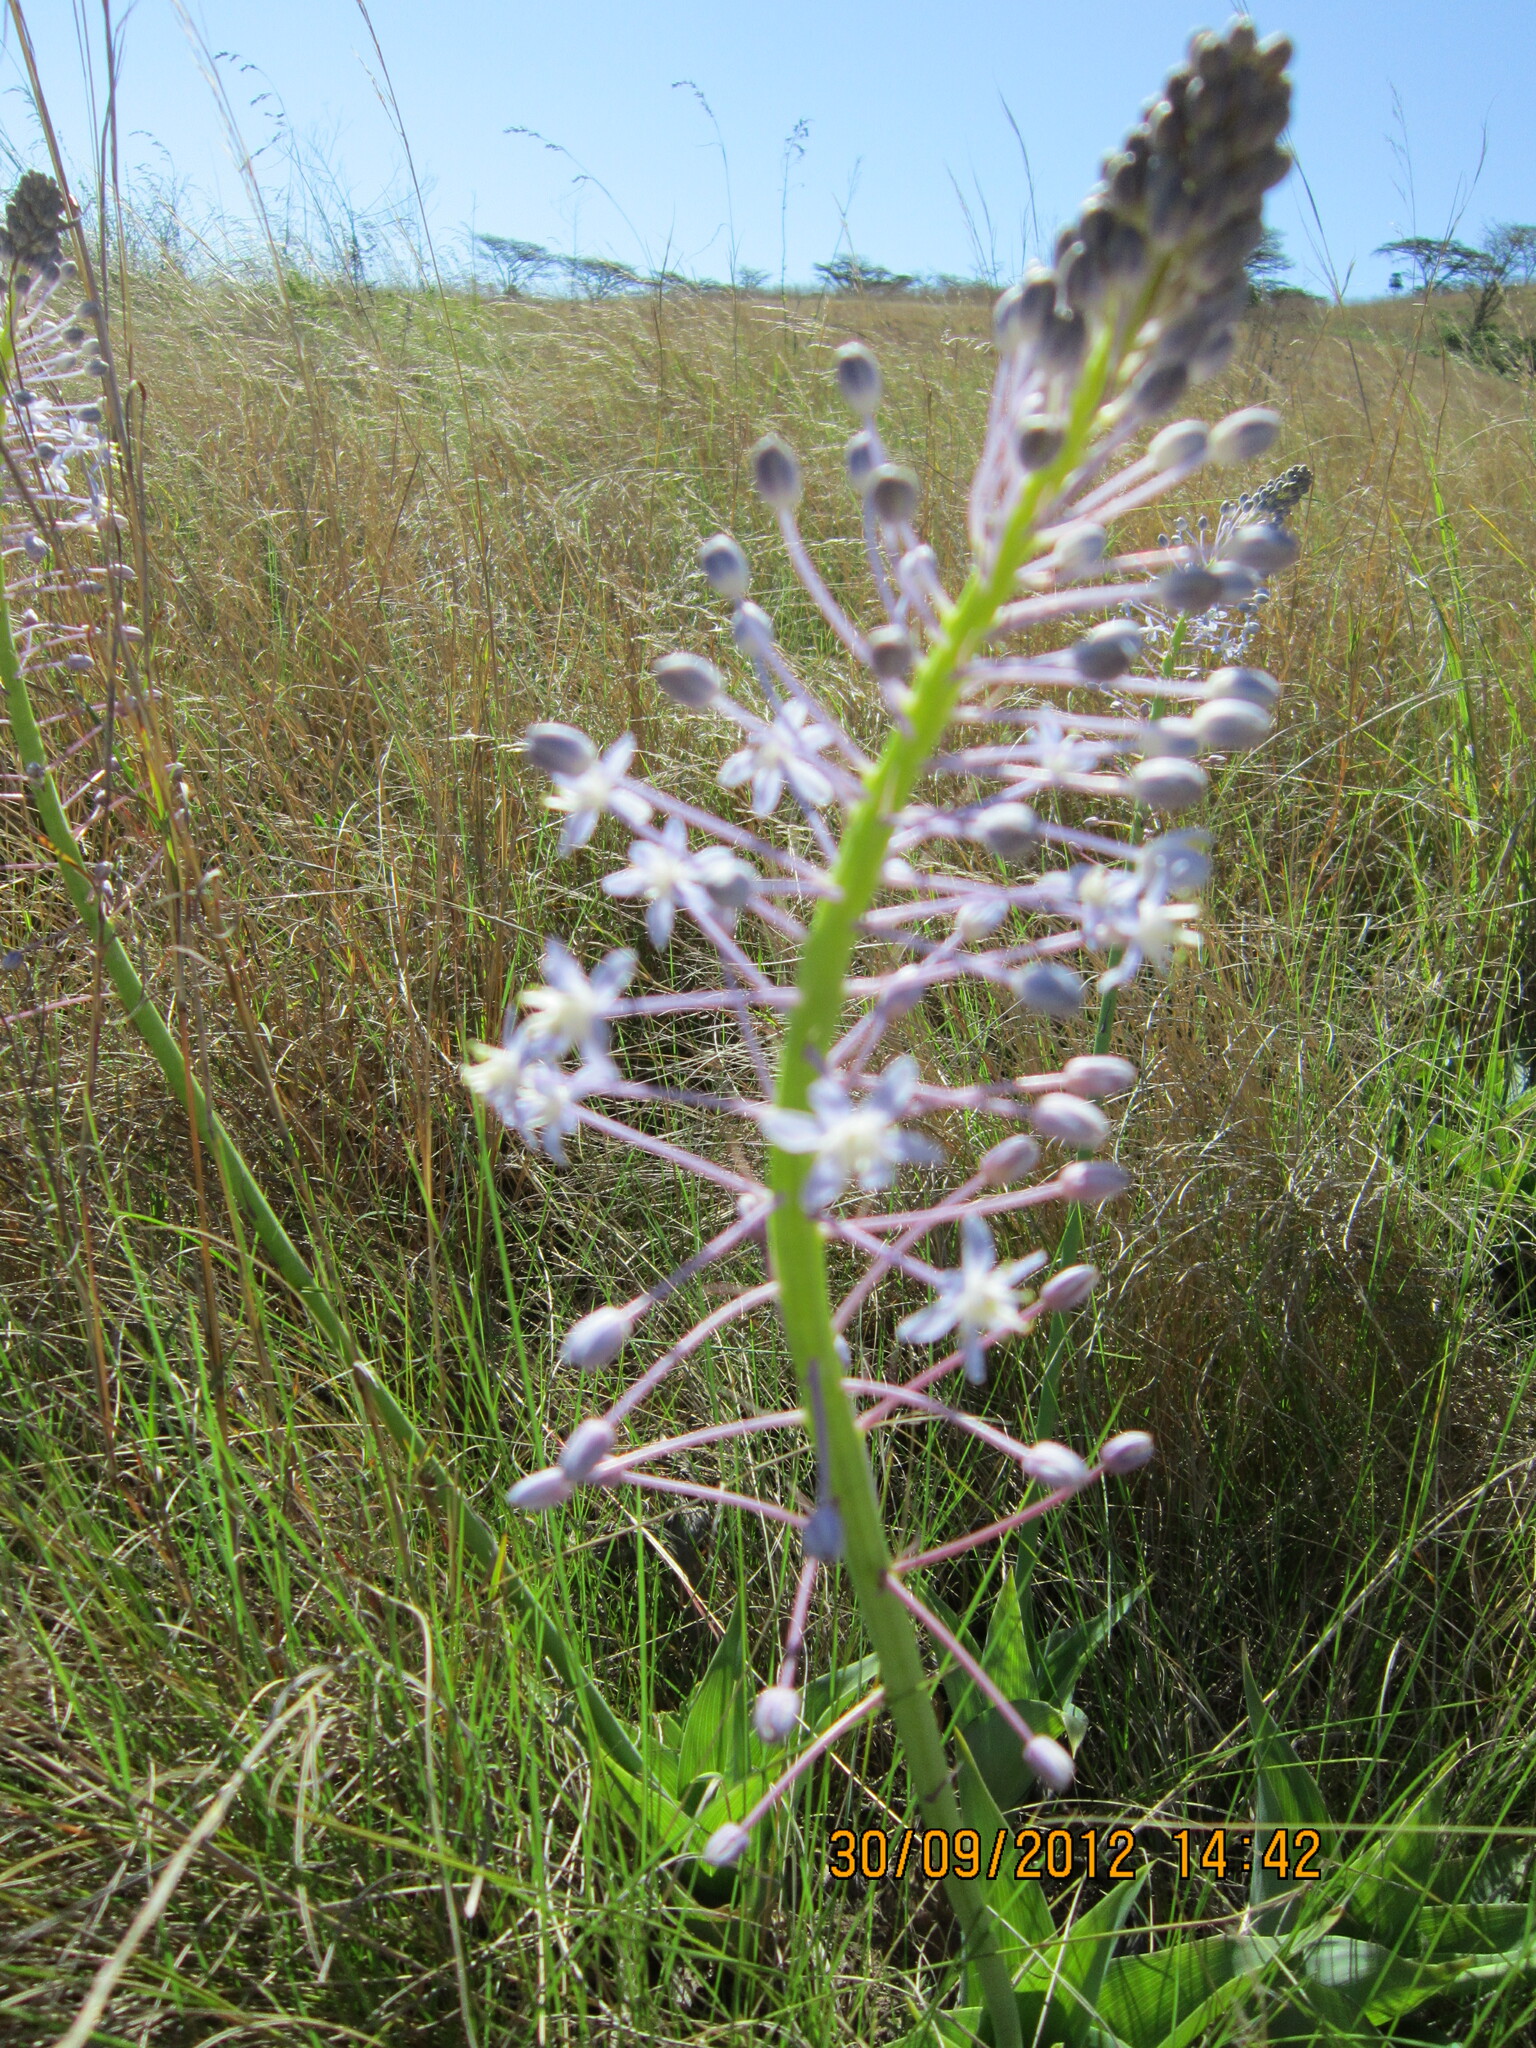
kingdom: Plantae
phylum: Tracheophyta
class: Liliopsida
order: Asparagales
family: Asparagaceae
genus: Merwilla
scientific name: Merwilla plumbea
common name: Blue-squill
